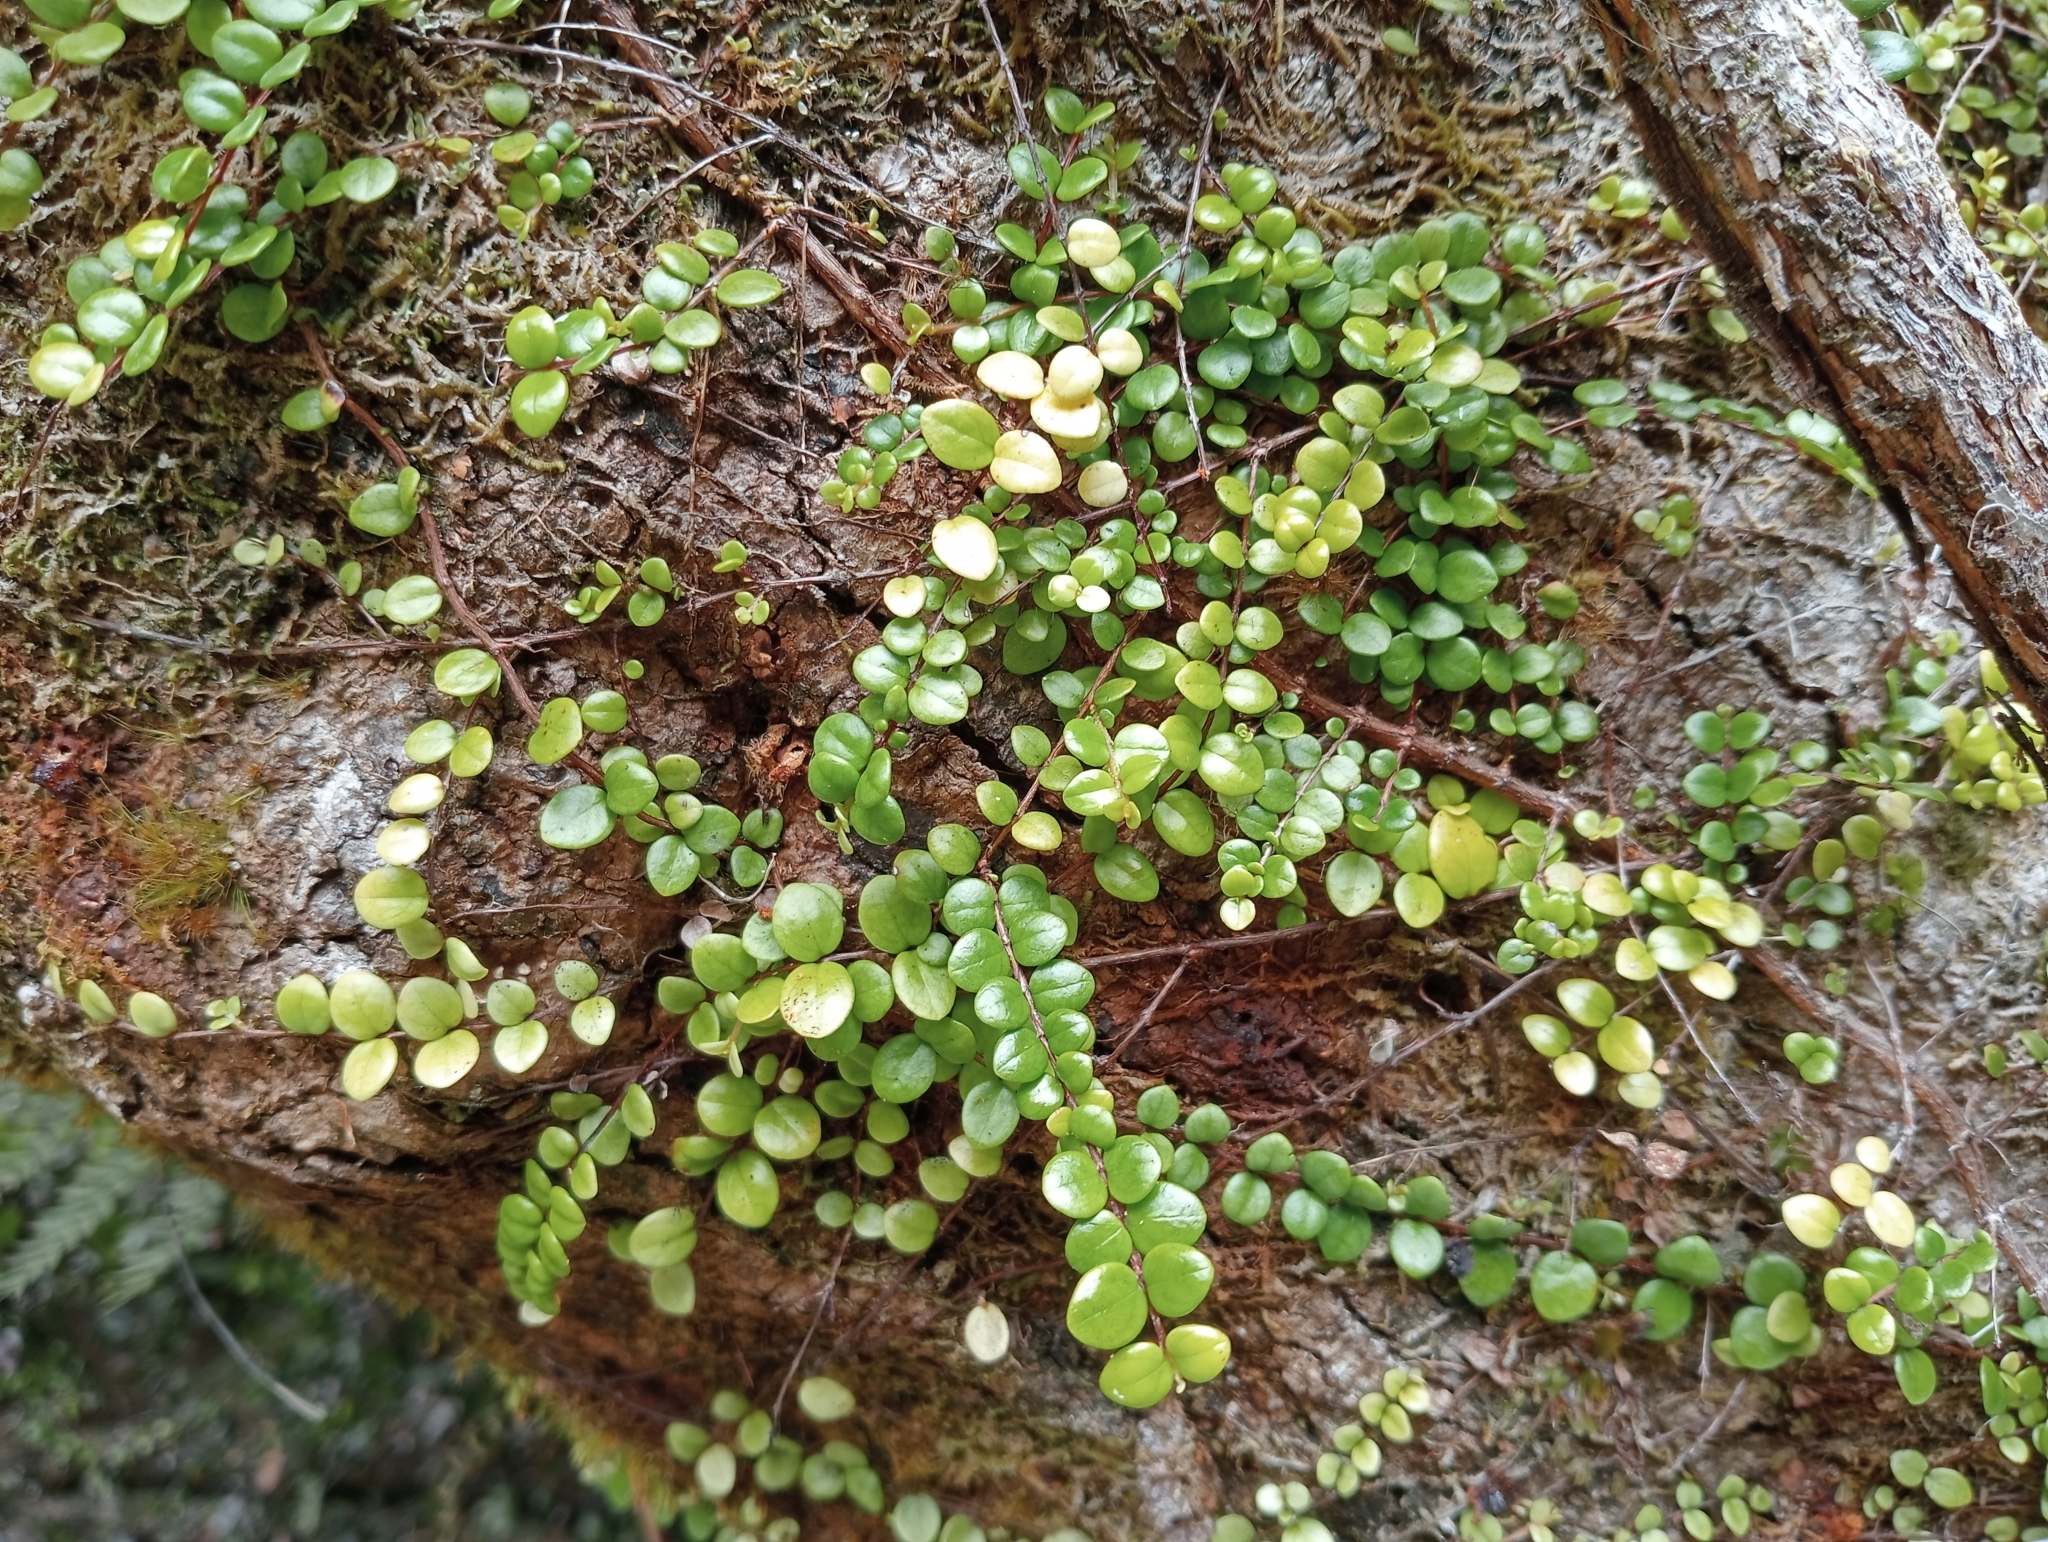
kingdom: Plantae
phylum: Tracheophyta
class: Magnoliopsida
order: Myrtales
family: Myrtaceae
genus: Metrosideros
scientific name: Metrosideros perforata
